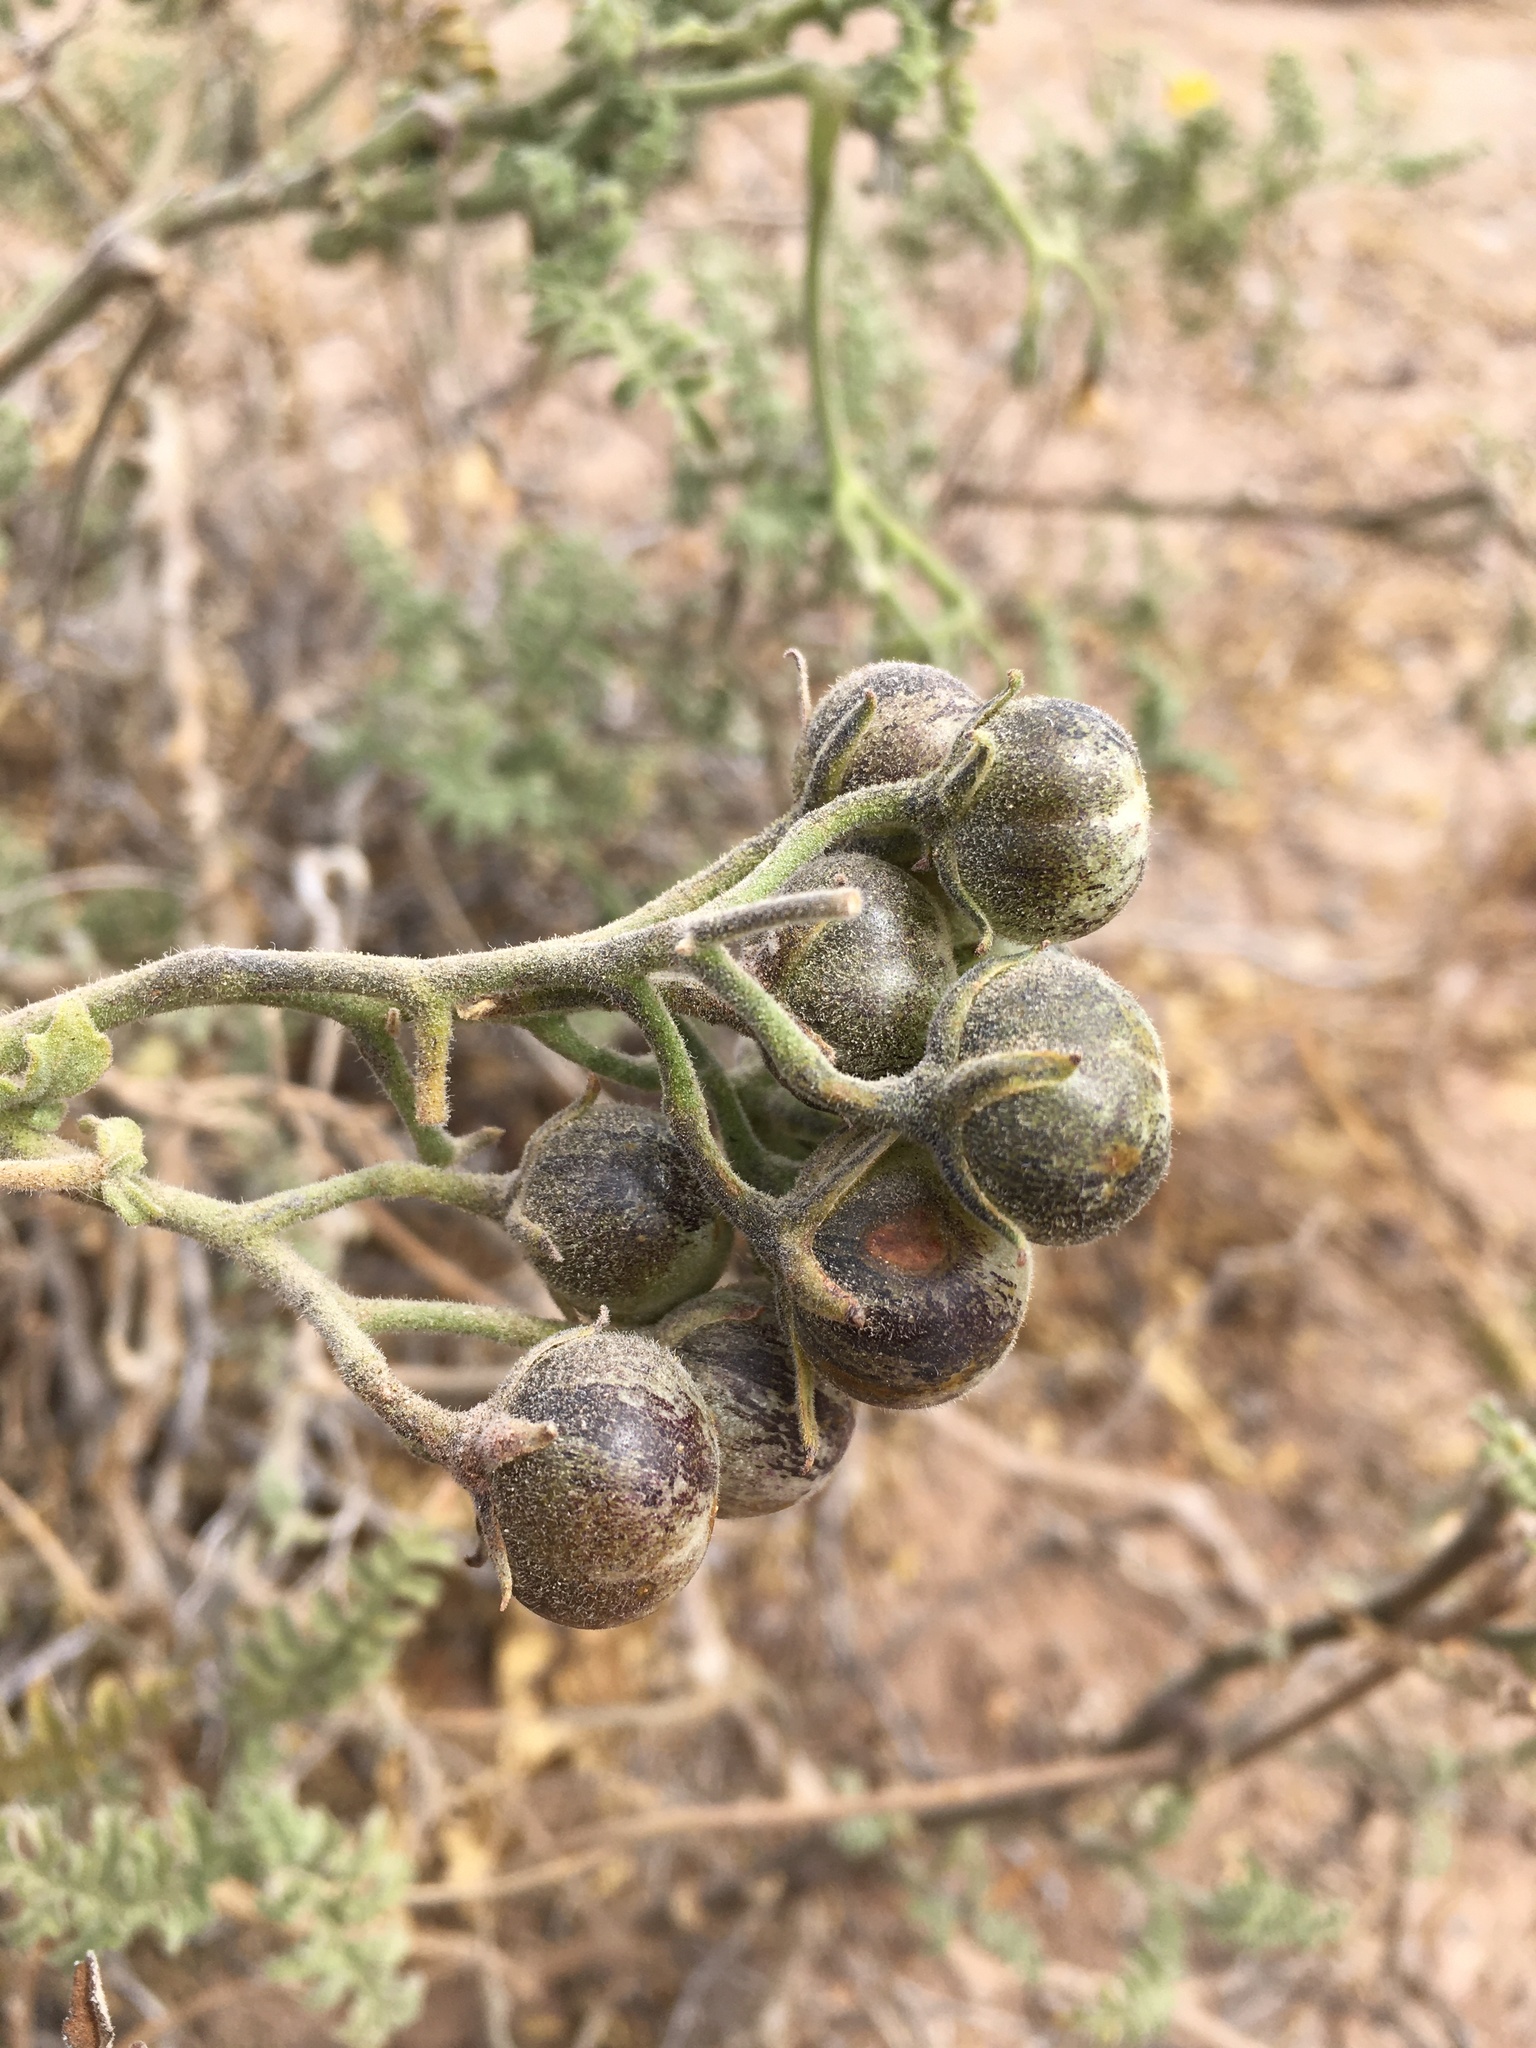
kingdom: Plantae
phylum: Tracheophyta
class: Magnoliopsida
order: Solanales
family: Solanaceae
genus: Solanum
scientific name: Solanum chilense
